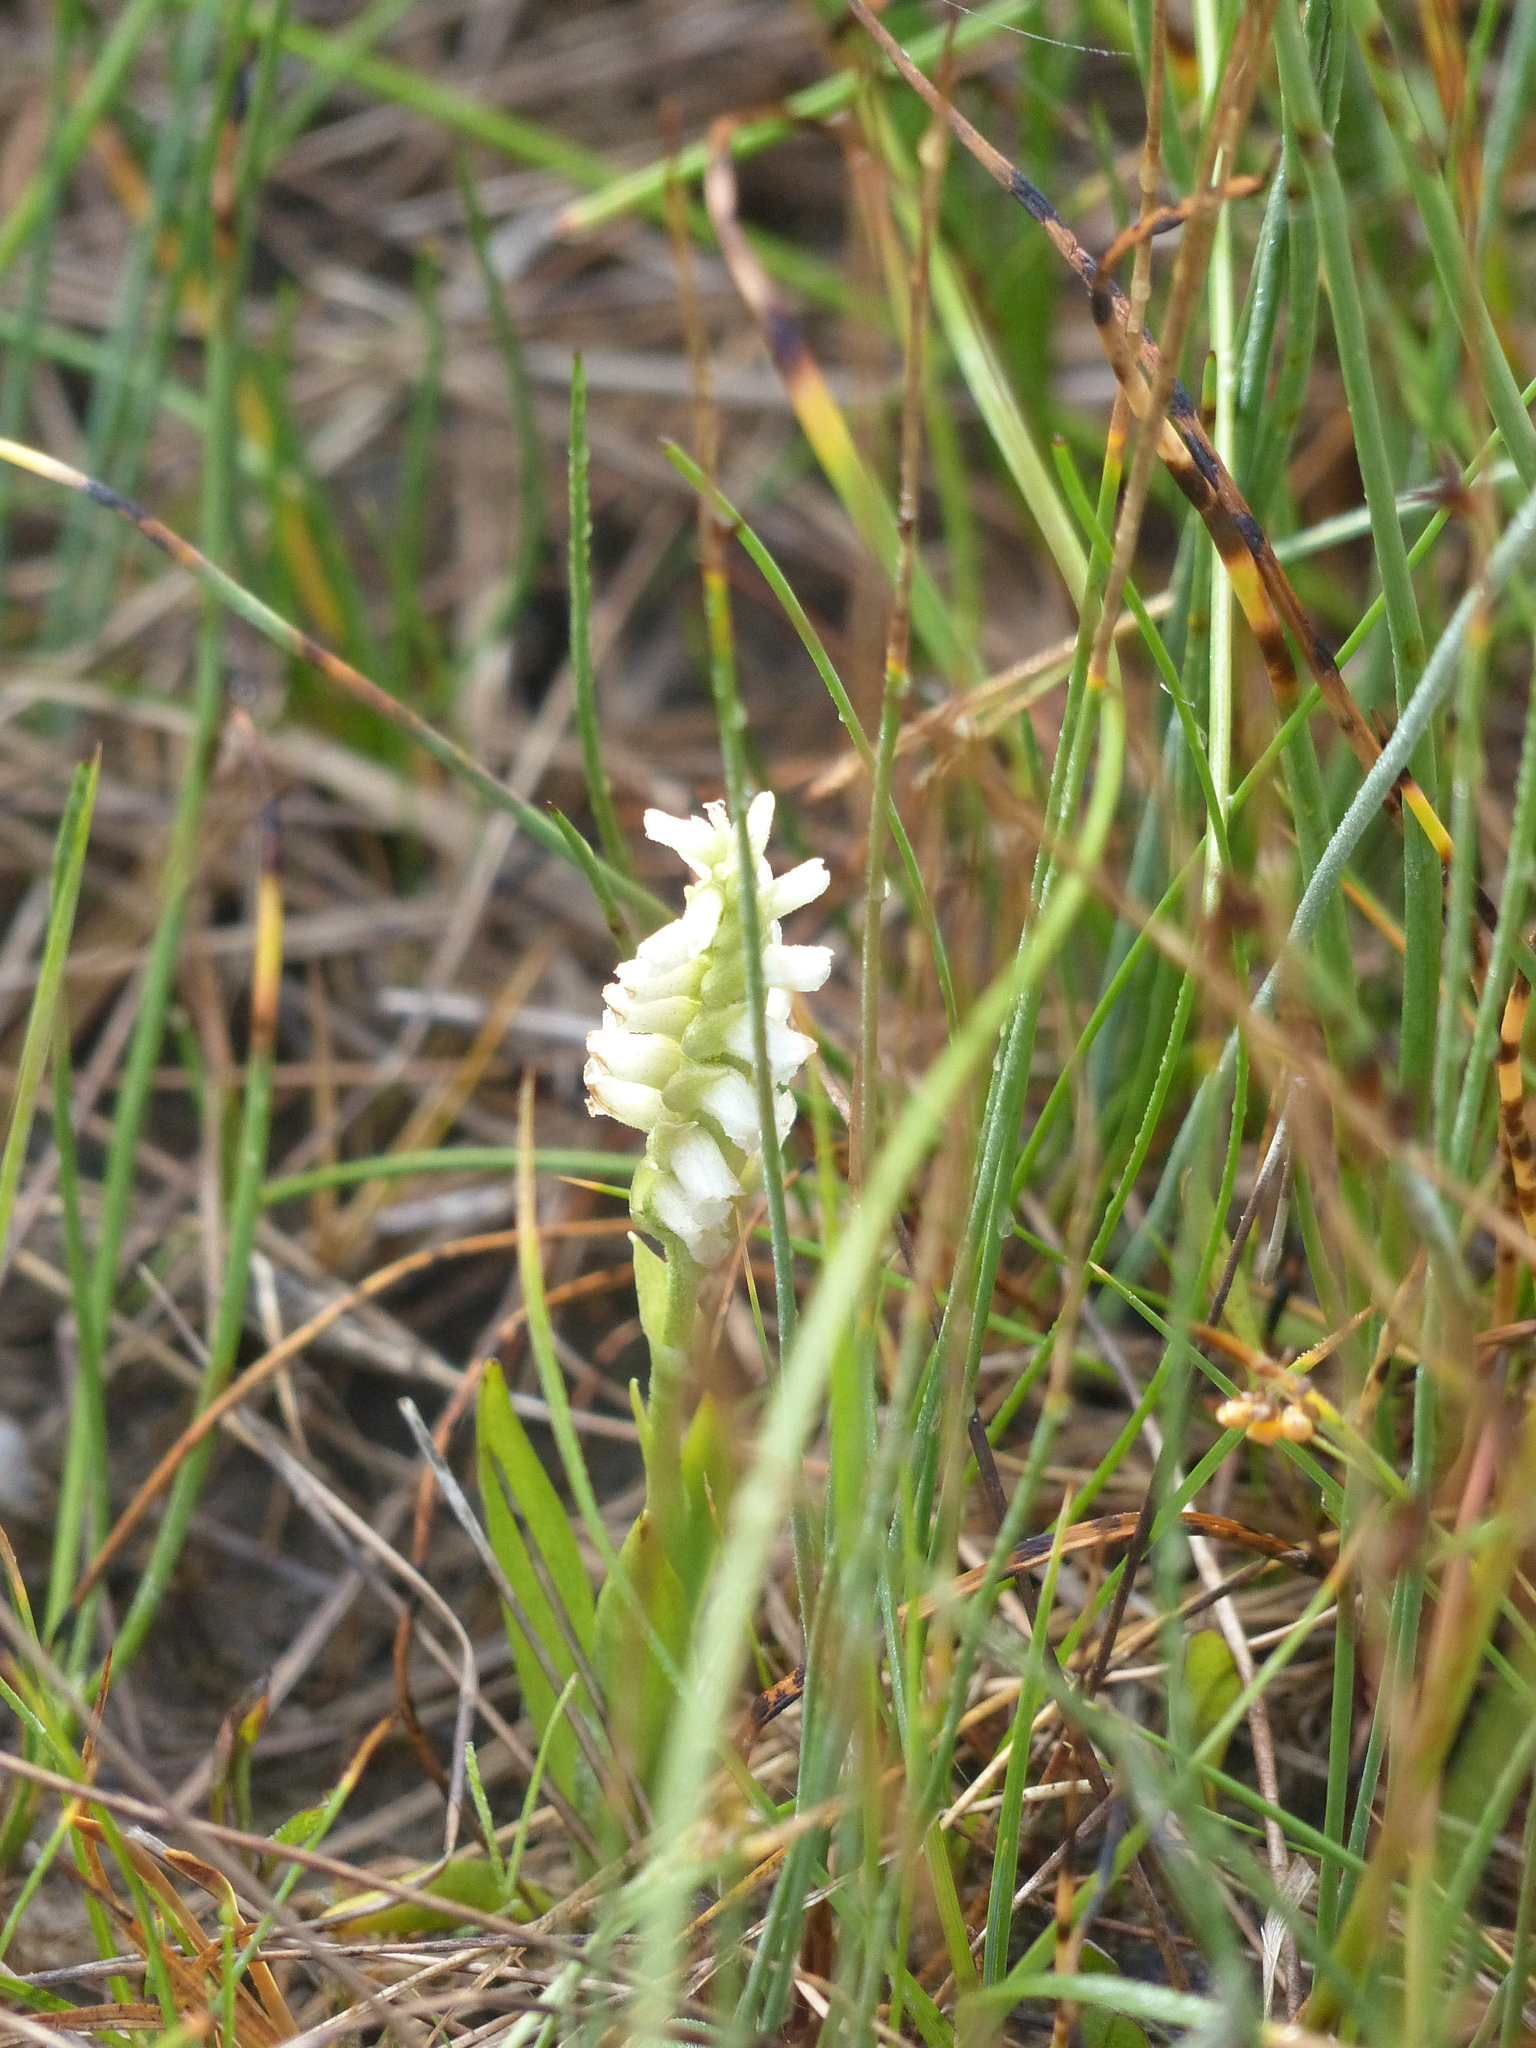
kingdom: Plantae
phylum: Tracheophyta
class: Liliopsida
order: Asparagales
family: Orchidaceae
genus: Spiranthes
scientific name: Spiranthes romanzoffiana
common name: Irish lady's-tresses
